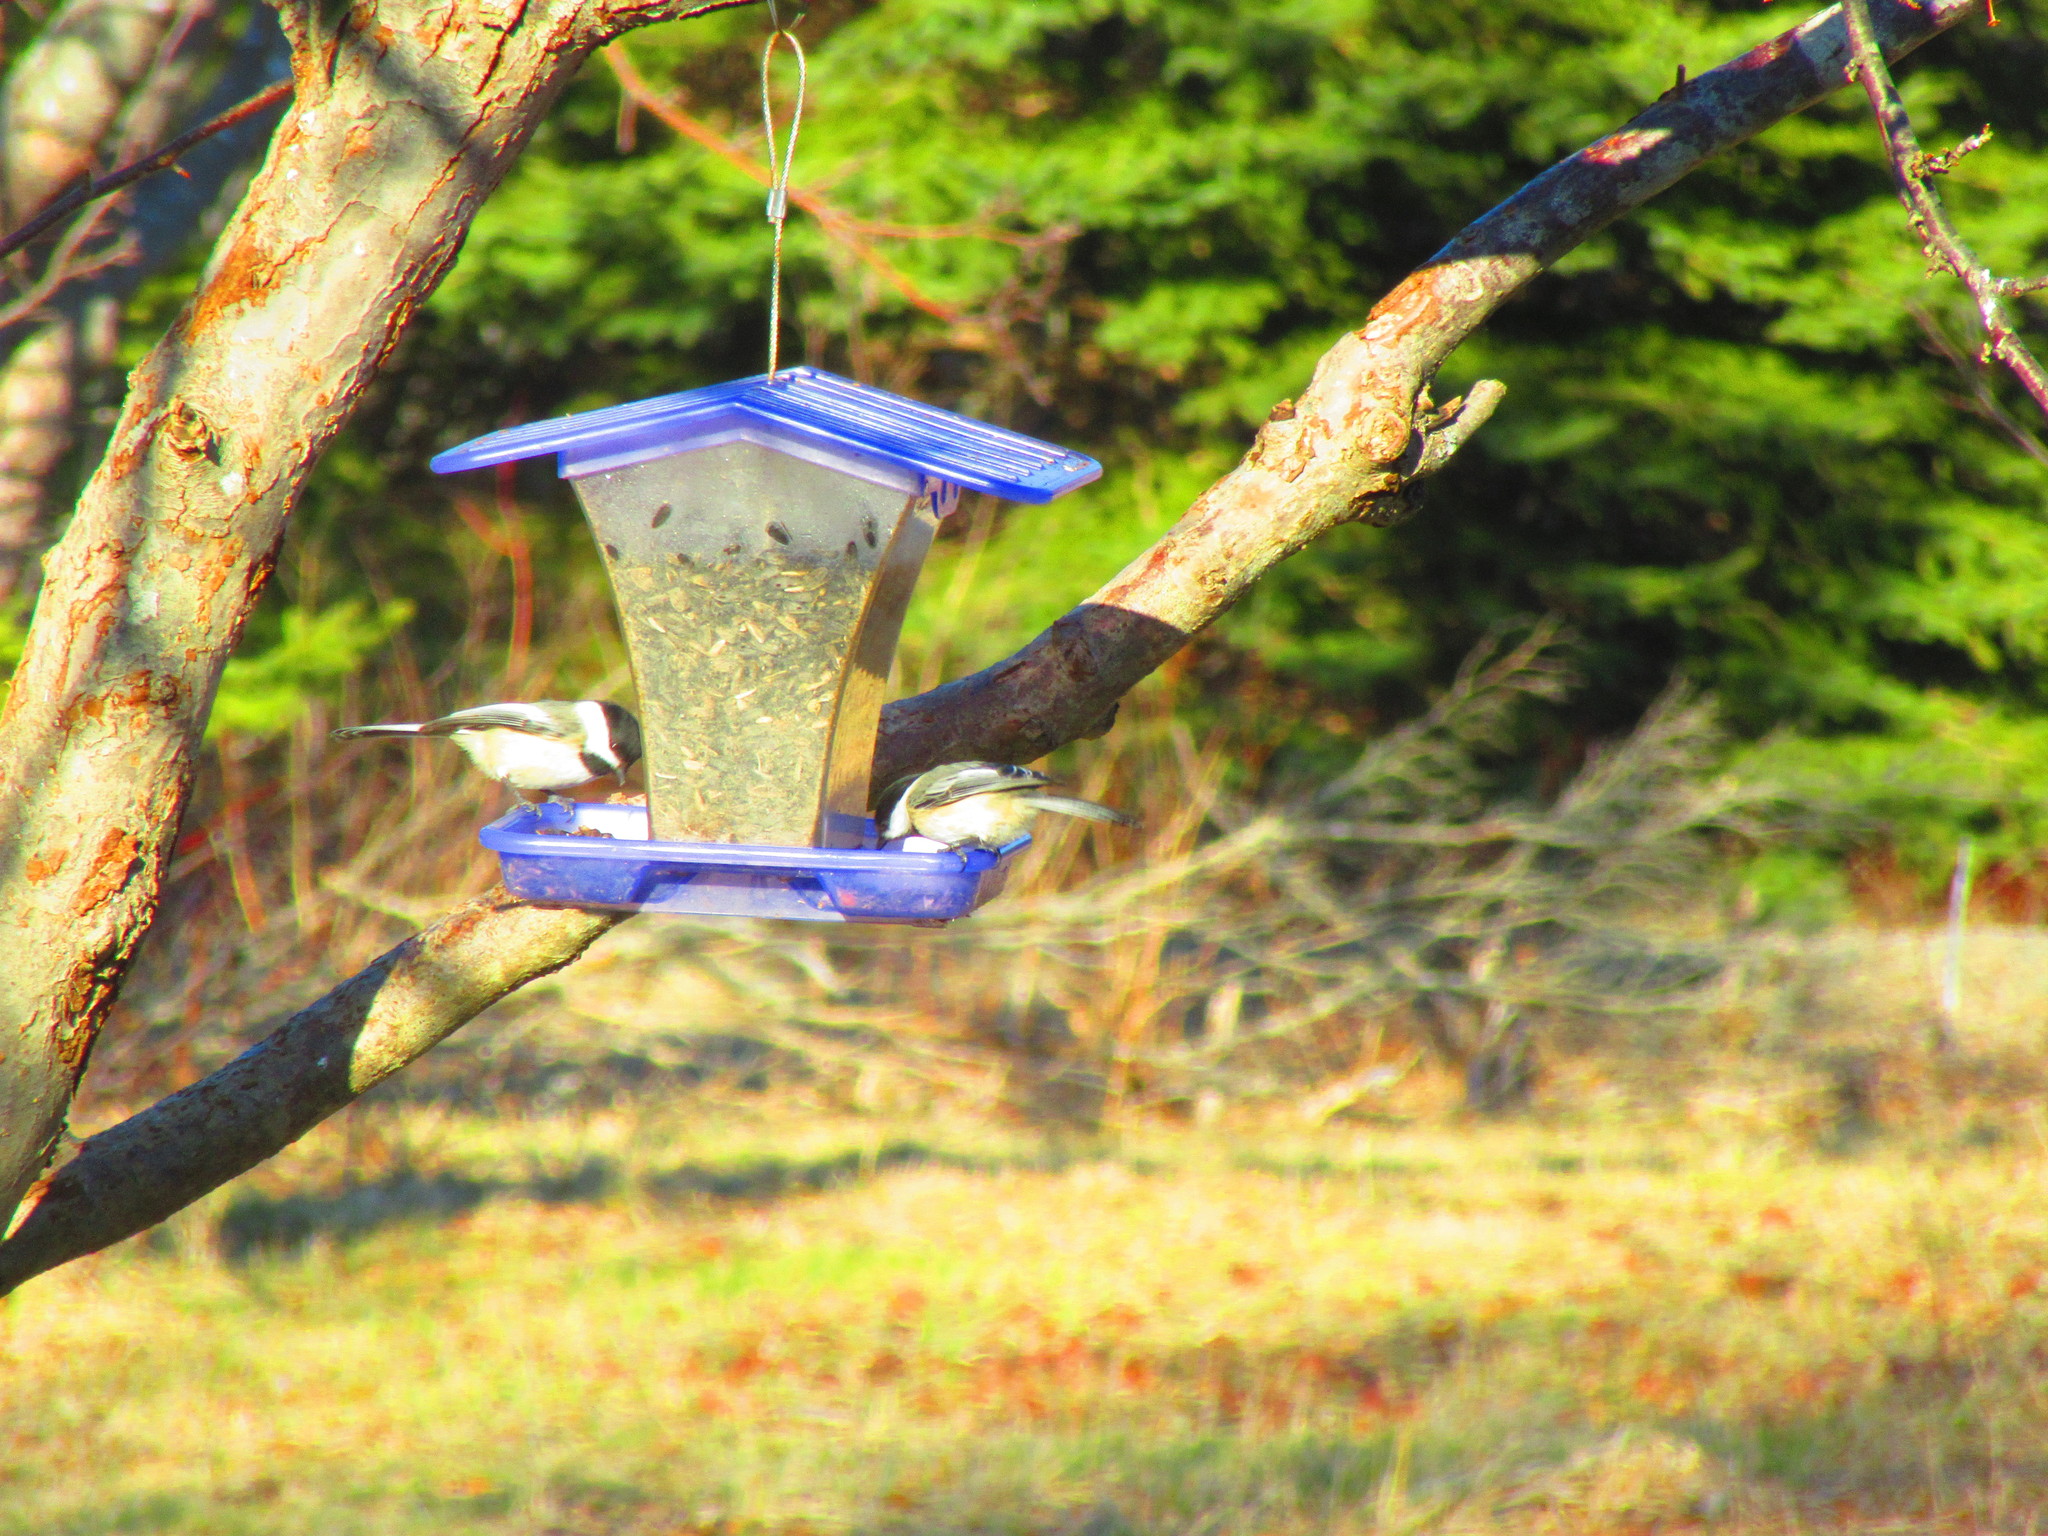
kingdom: Animalia
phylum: Chordata
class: Aves
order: Passeriformes
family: Paridae
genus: Poecile
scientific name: Poecile atricapillus
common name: Black-capped chickadee
